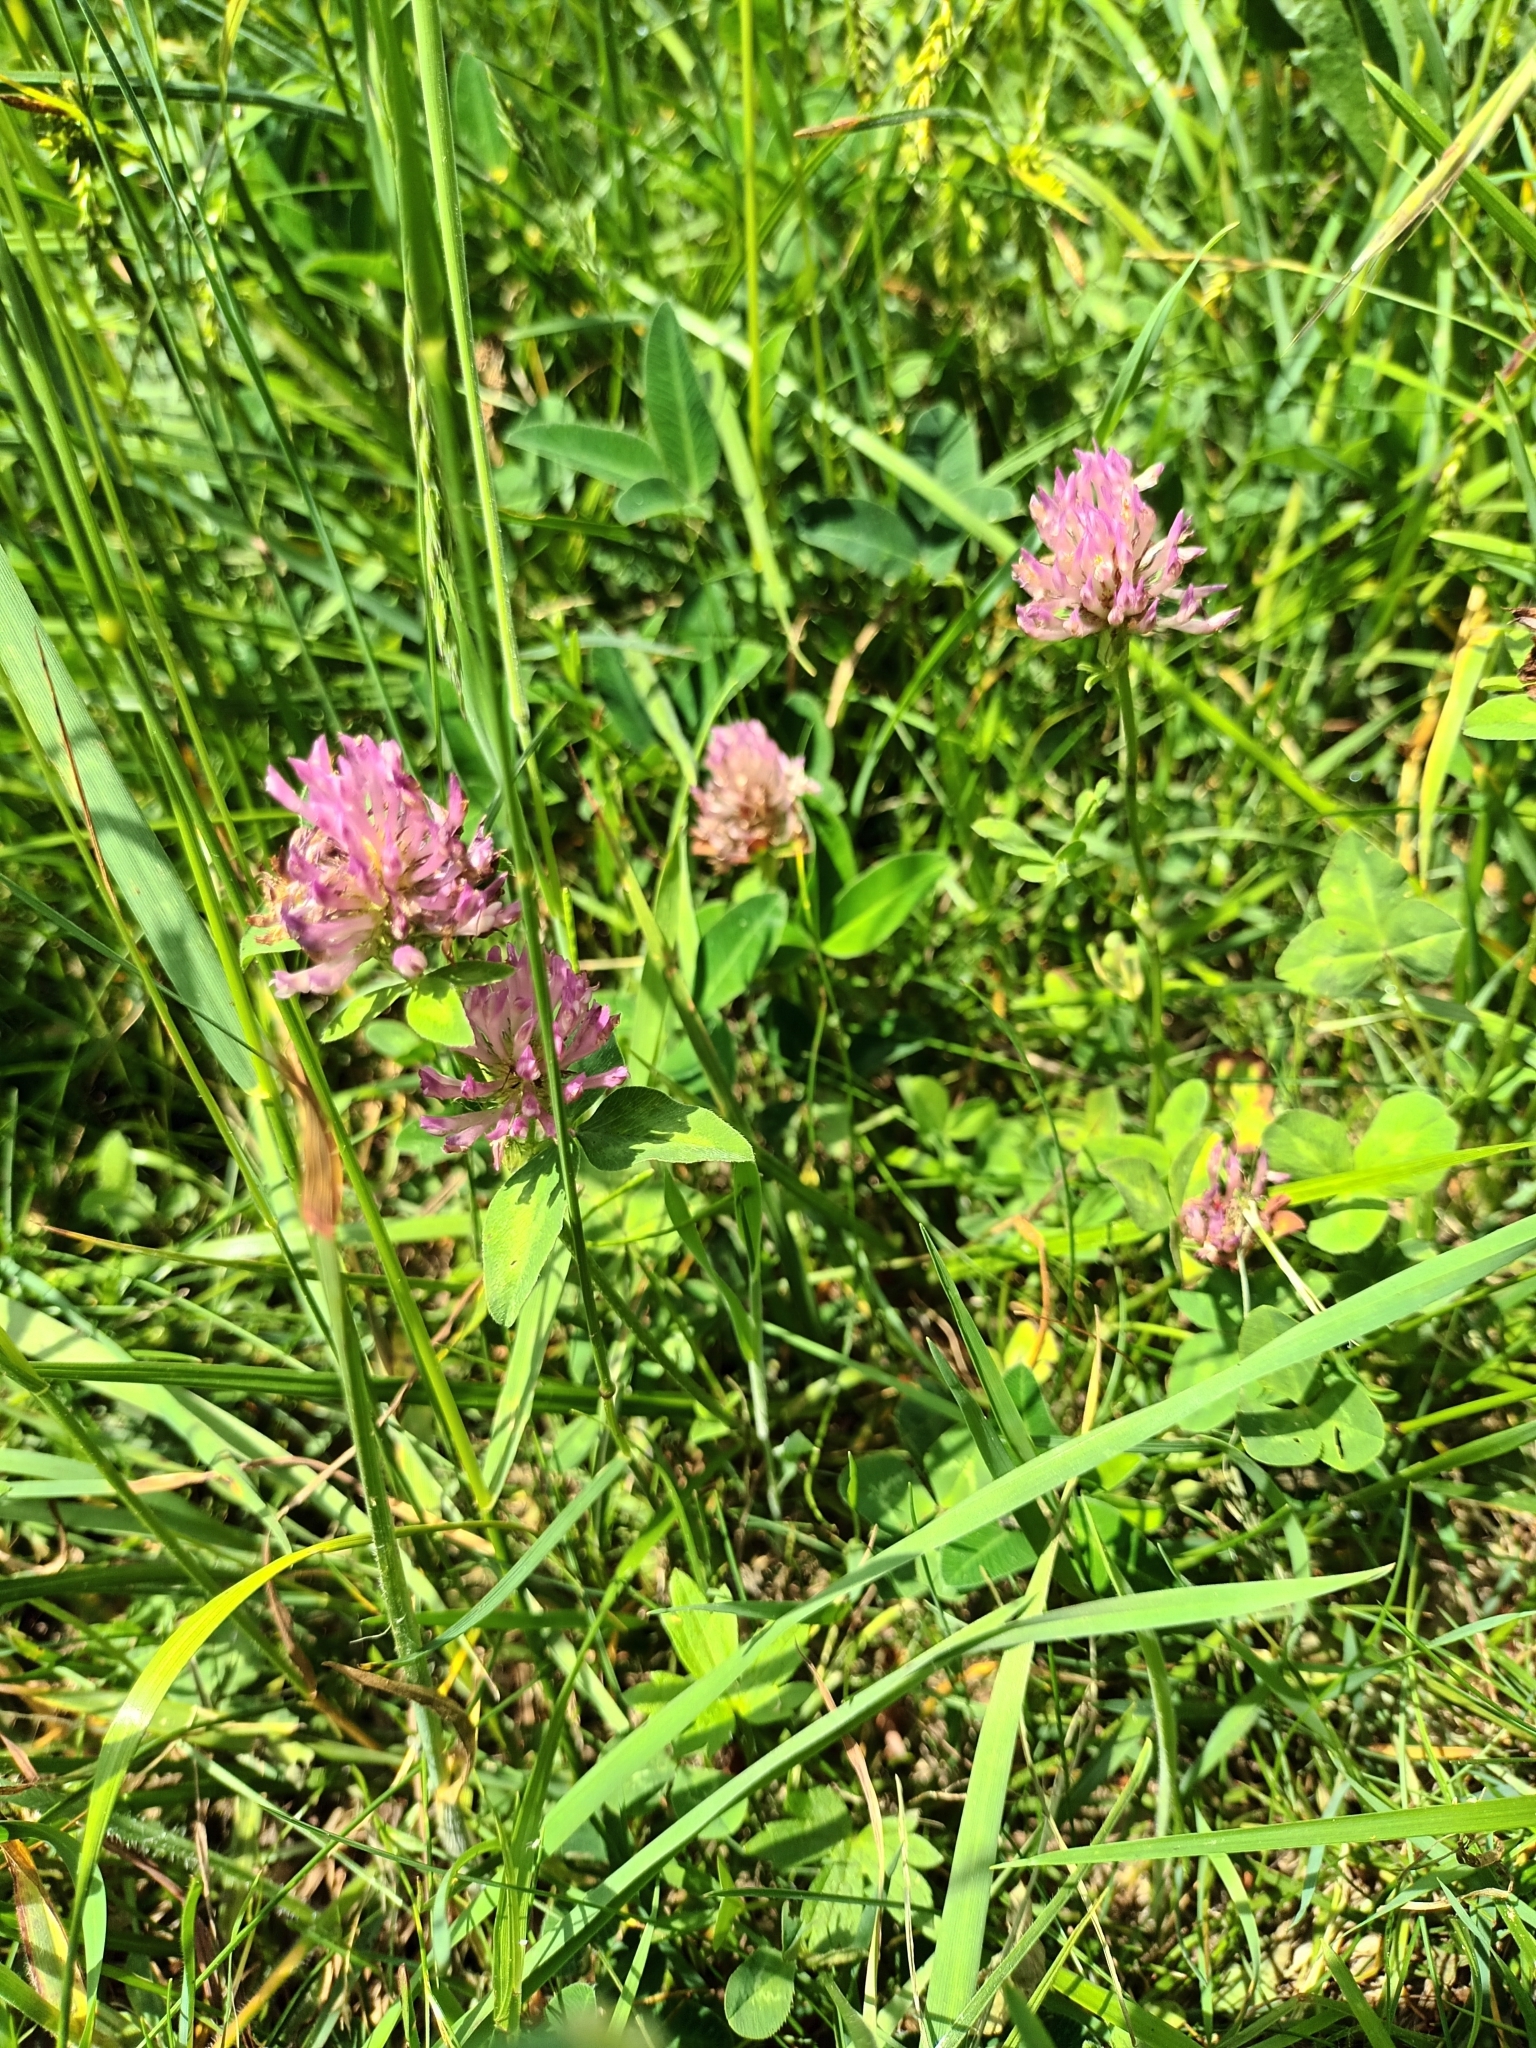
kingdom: Plantae
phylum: Tracheophyta
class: Magnoliopsida
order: Fabales
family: Fabaceae
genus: Trifolium
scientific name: Trifolium pratense
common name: Red clover
